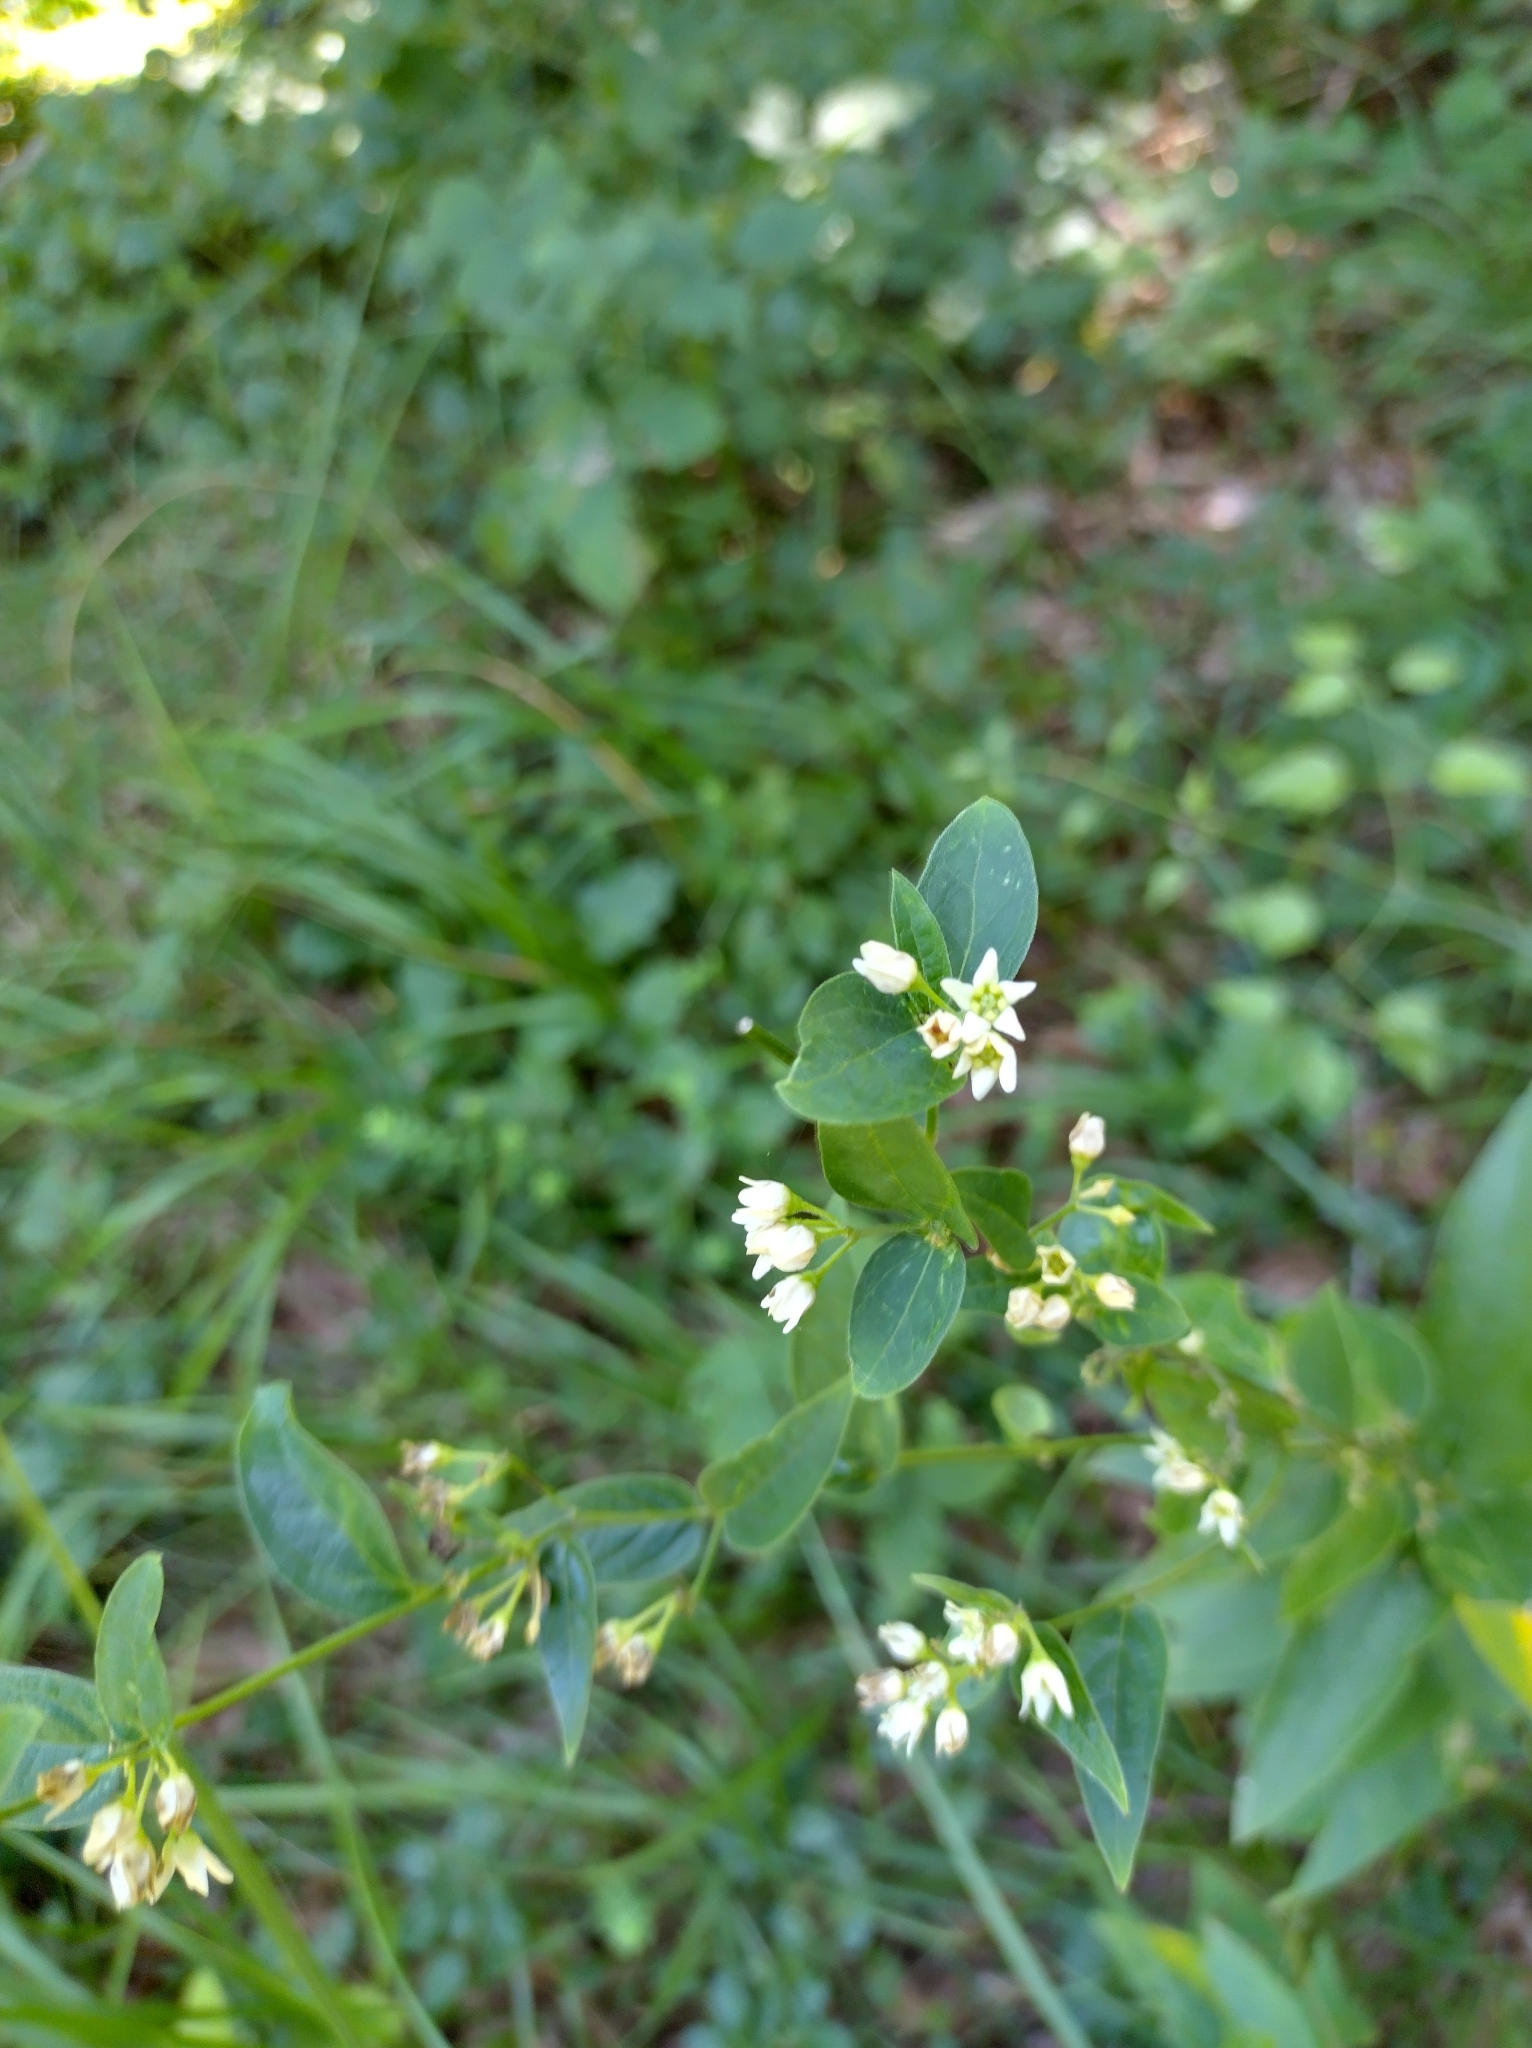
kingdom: Plantae
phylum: Tracheophyta
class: Magnoliopsida
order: Gentianales
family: Apocynaceae
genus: Vincetoxicum
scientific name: Vincetoxicum hirundinaria
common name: White swallowwort
